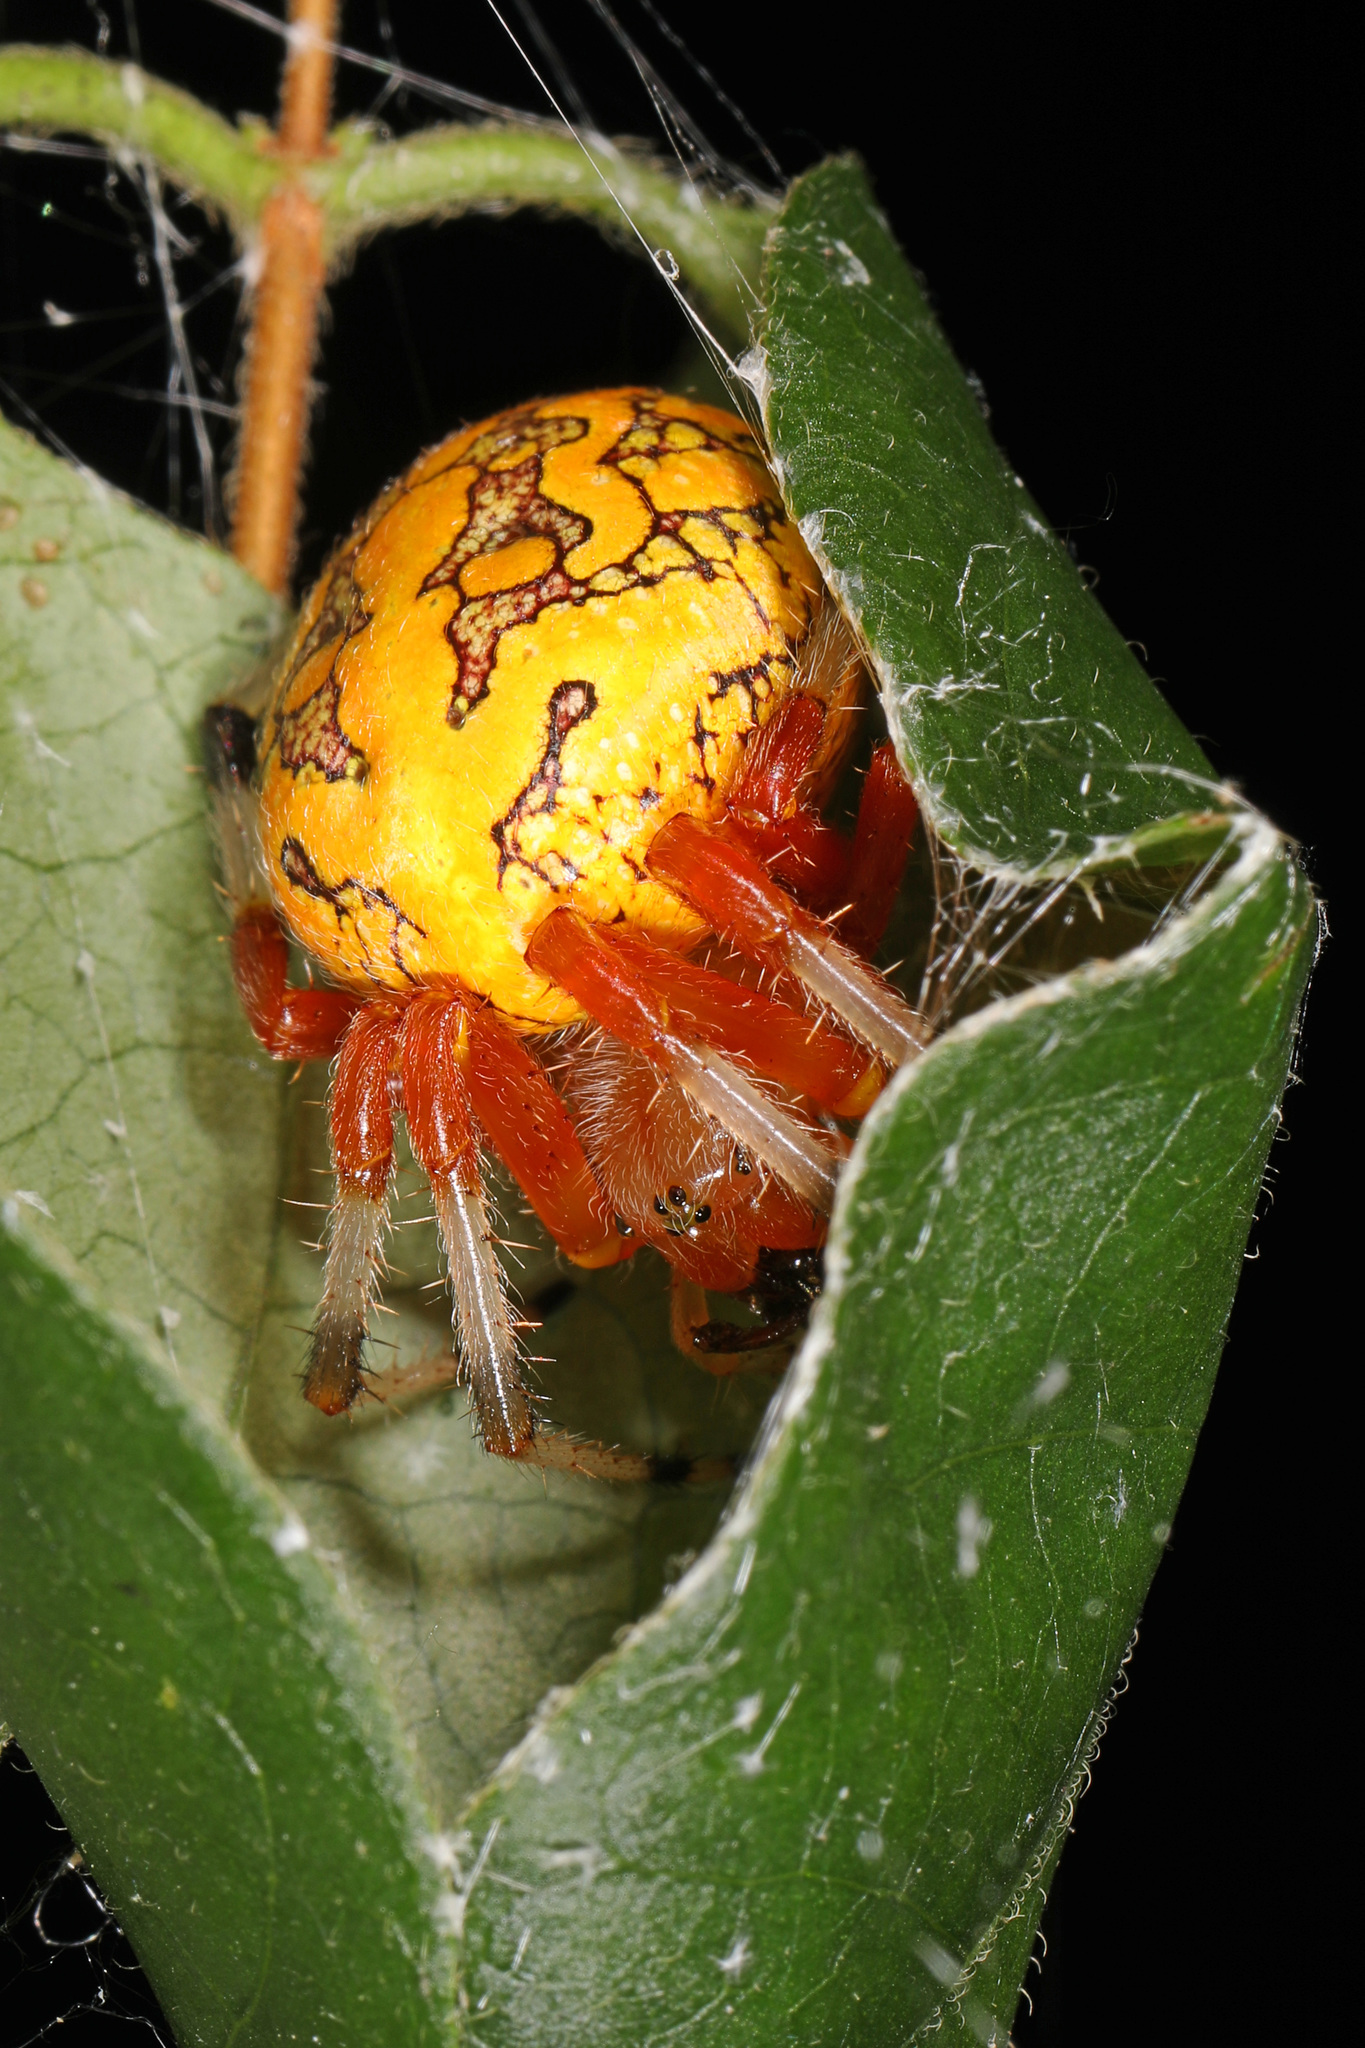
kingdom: Animalia
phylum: Arthropoda
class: Arachnida
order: Araneae
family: Araneidae
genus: Araneus
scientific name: Araneus marmoreus
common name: Marbled orbweaver
